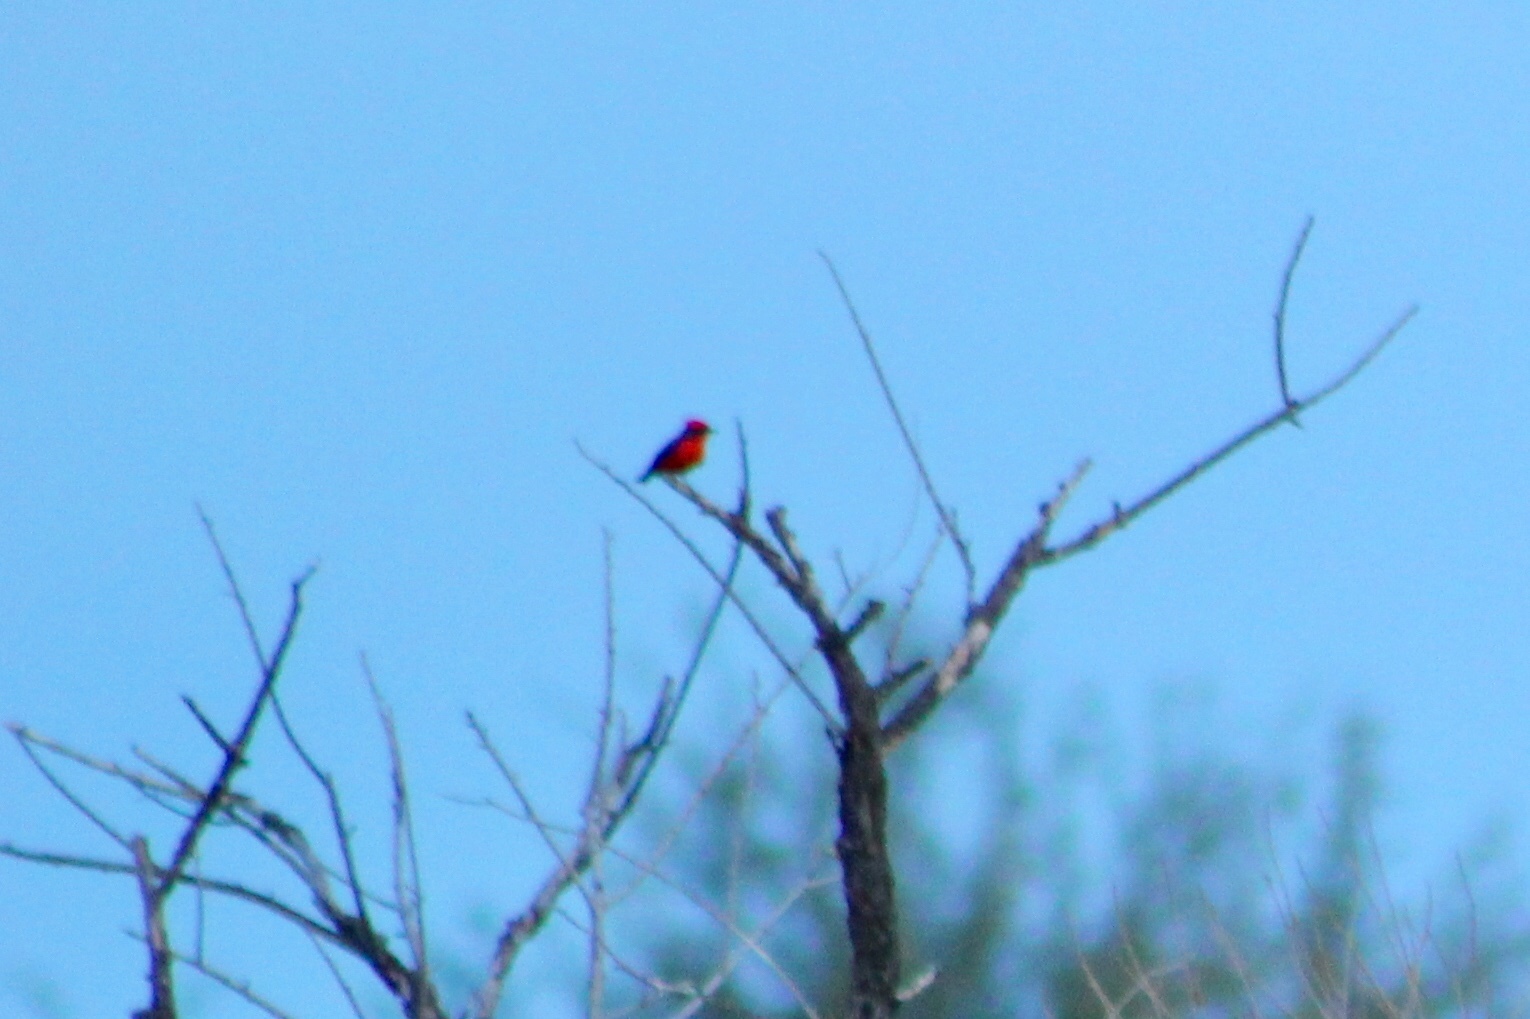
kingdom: Animalia
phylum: Chordata
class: Aves
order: Passeriformes
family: Tyrannidae
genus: Pyrocephalus
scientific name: Pyrocephalus rubinus
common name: Vermilion flycatcher
